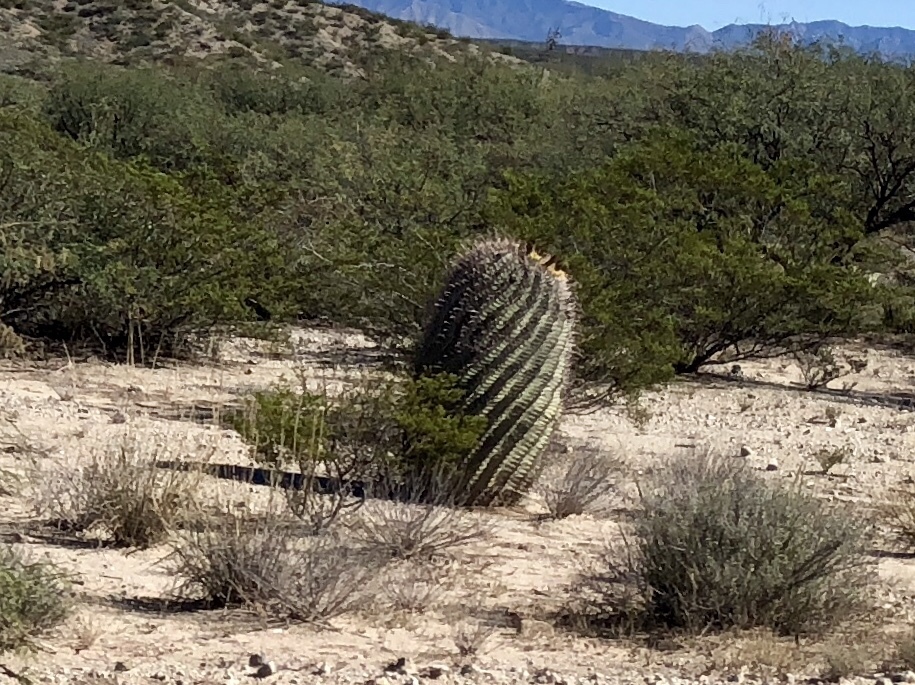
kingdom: Plantae
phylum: Tracheophyta
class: Magnoliopsida
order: Caryophyllales
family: Cactaceae
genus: Ferocactus
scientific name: Ferocactus wislizeni
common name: Candy barrel cactus
